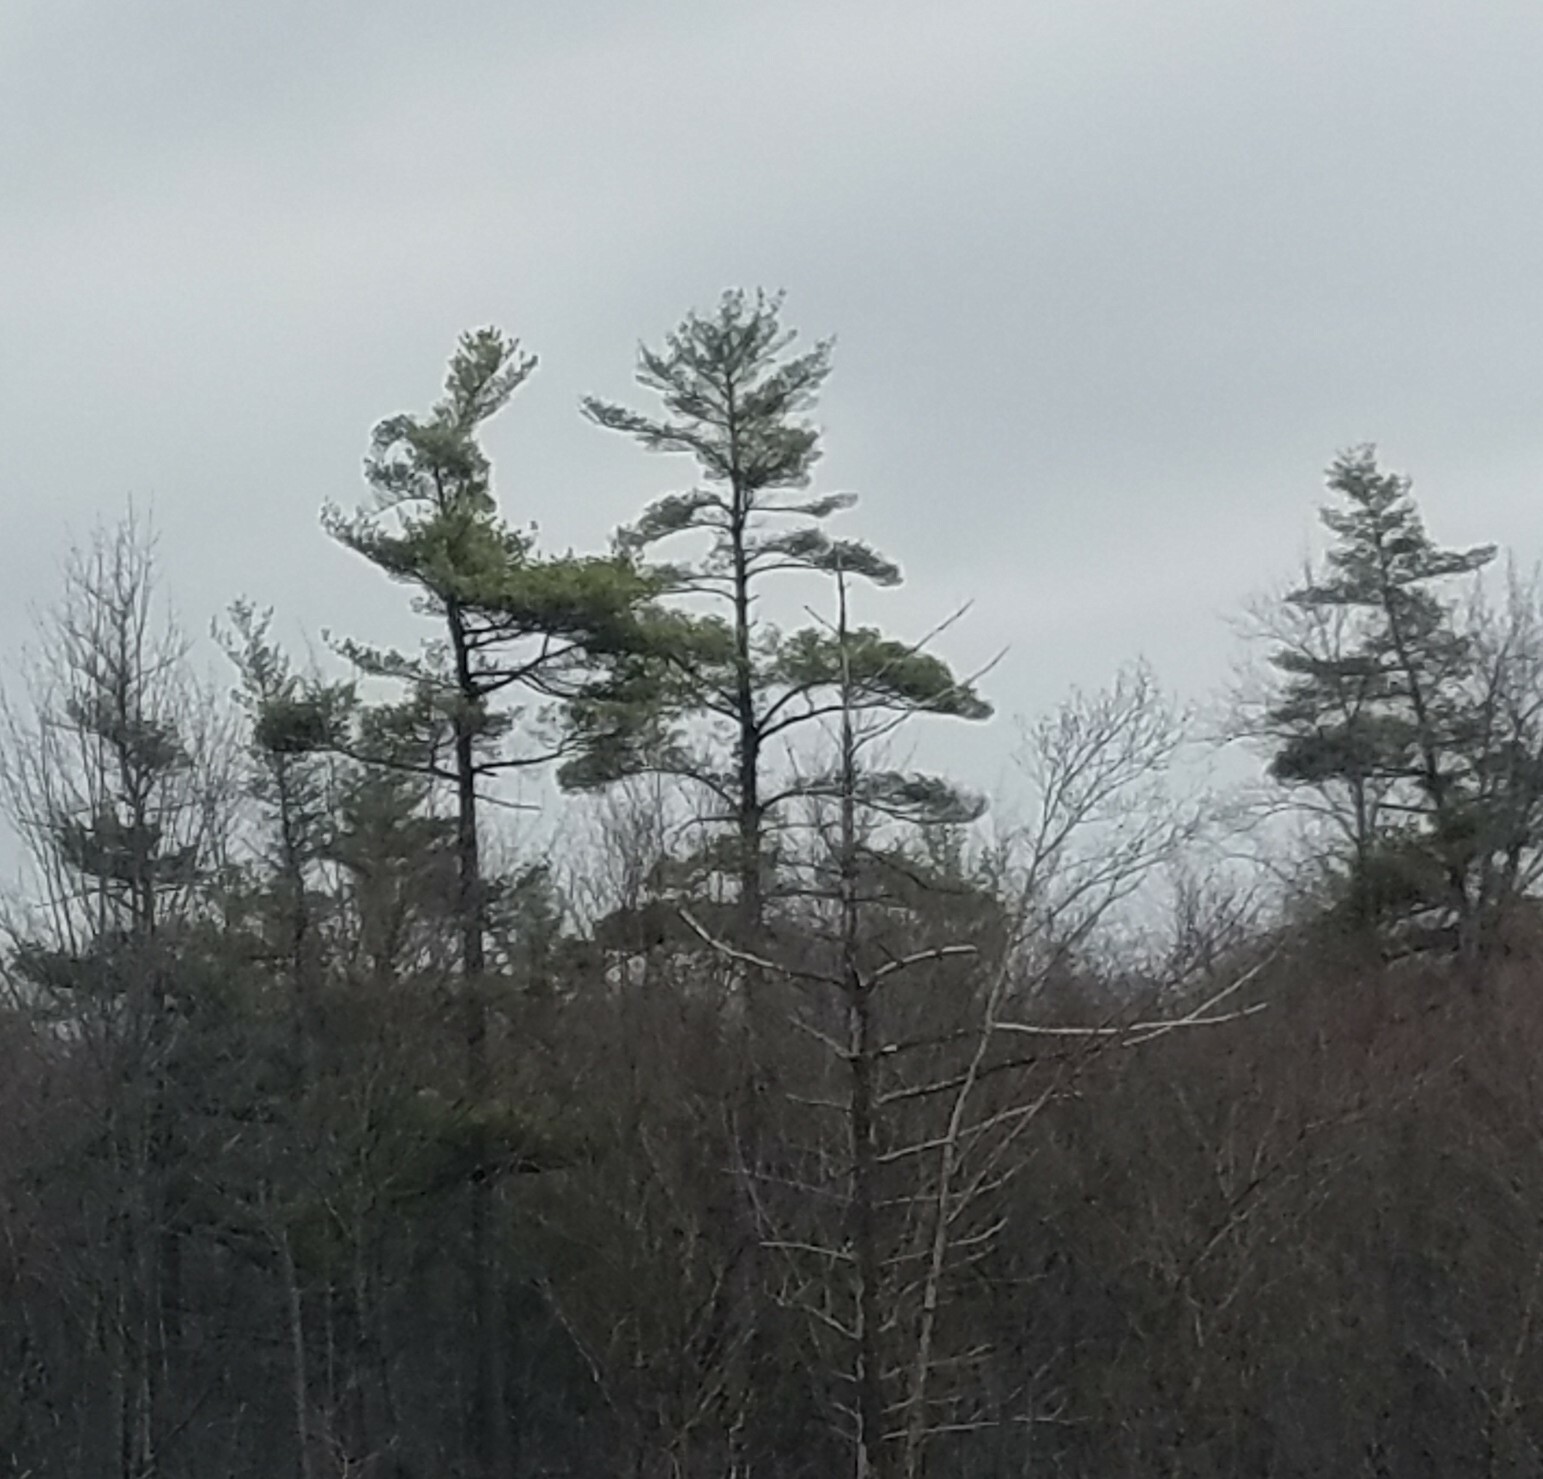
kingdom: Plantae
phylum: Tracheophyta
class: Pinopsida
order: Pinales
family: Pinaceae
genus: Pinus
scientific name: Pinus strobus
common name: Weymouth pine
